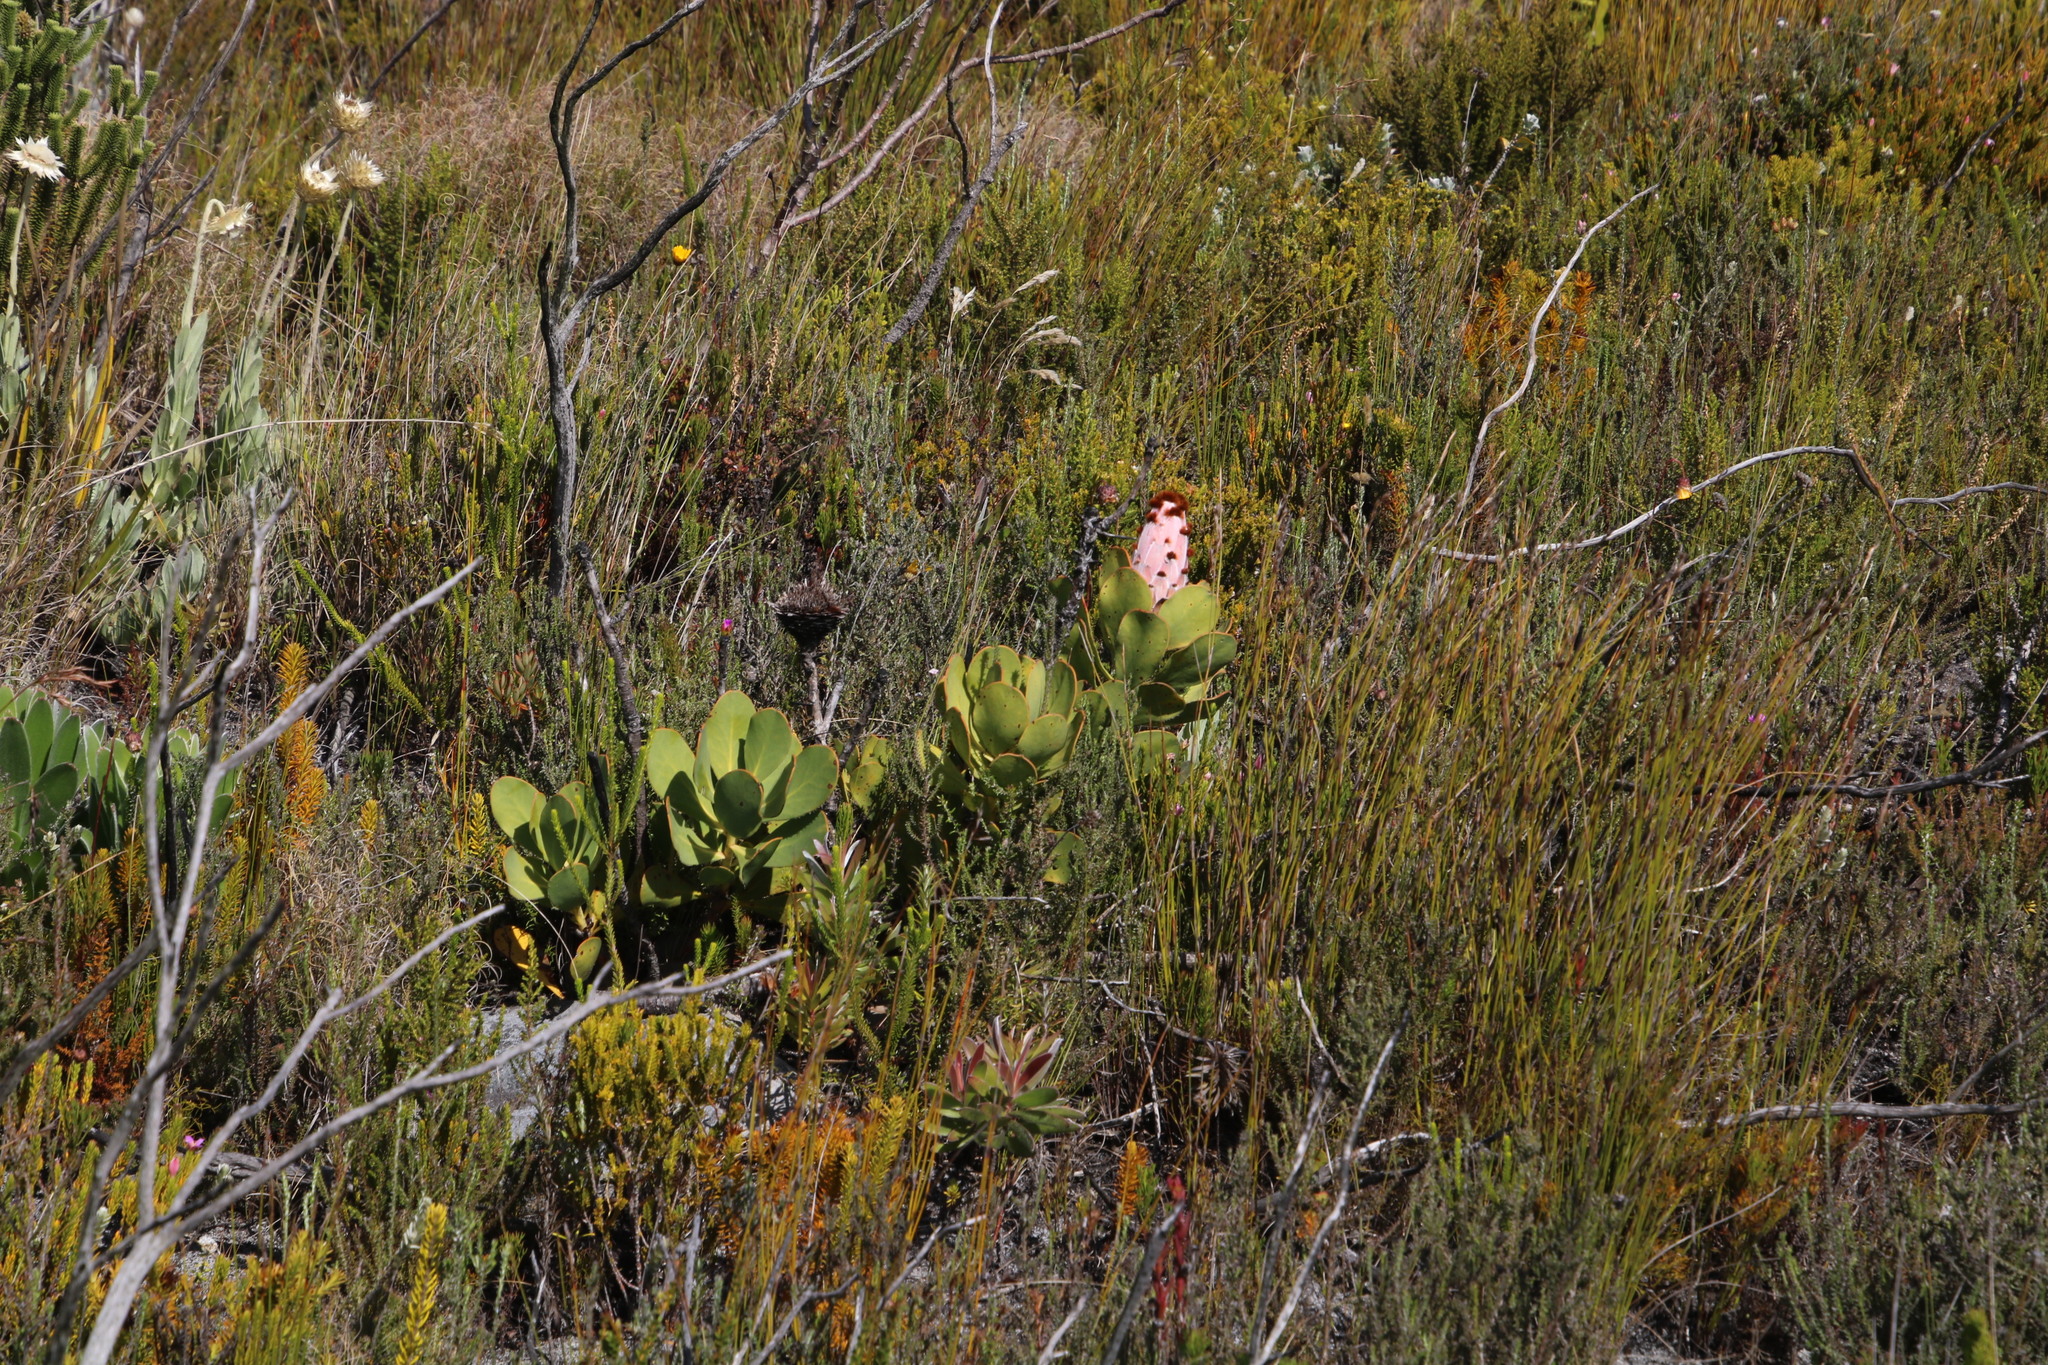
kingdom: Plantae
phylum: Tracheophyta
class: Magnoliopsida
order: Proteales
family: Proteaceae
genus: Protea
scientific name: Protea speciosa
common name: Brown-beard sugarbush
